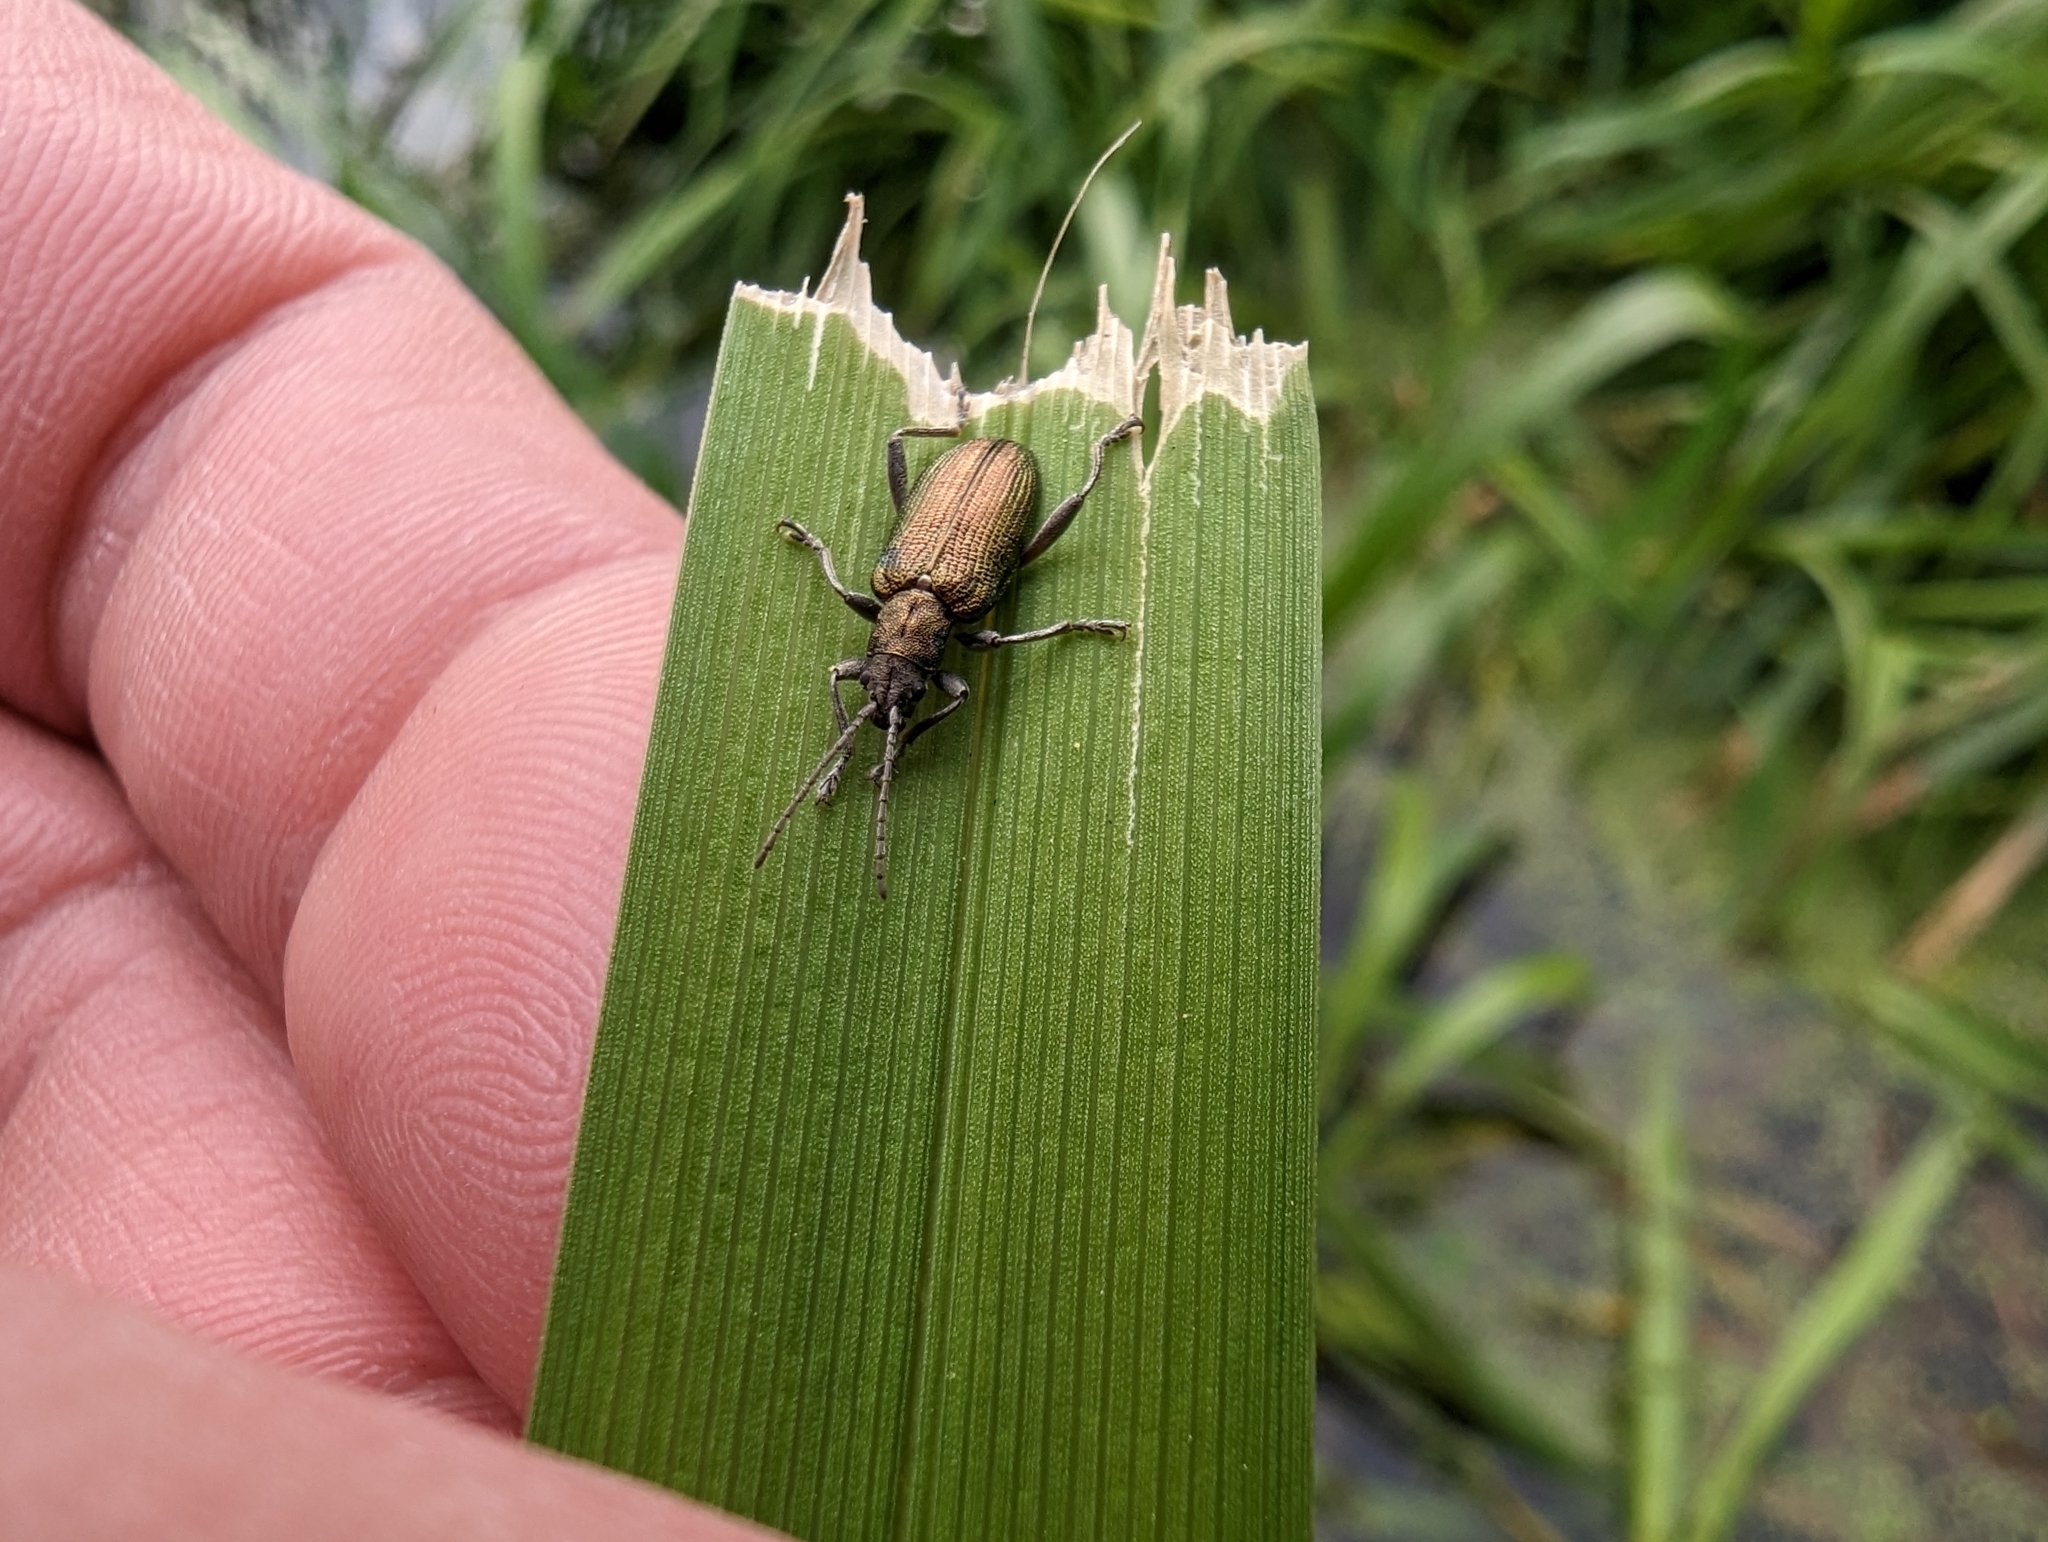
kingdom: Animalia
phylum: Arthropoda
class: Insecta
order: Coleoptera
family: Chrysomelidae
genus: Donacia
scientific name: Donacia semicuprea
